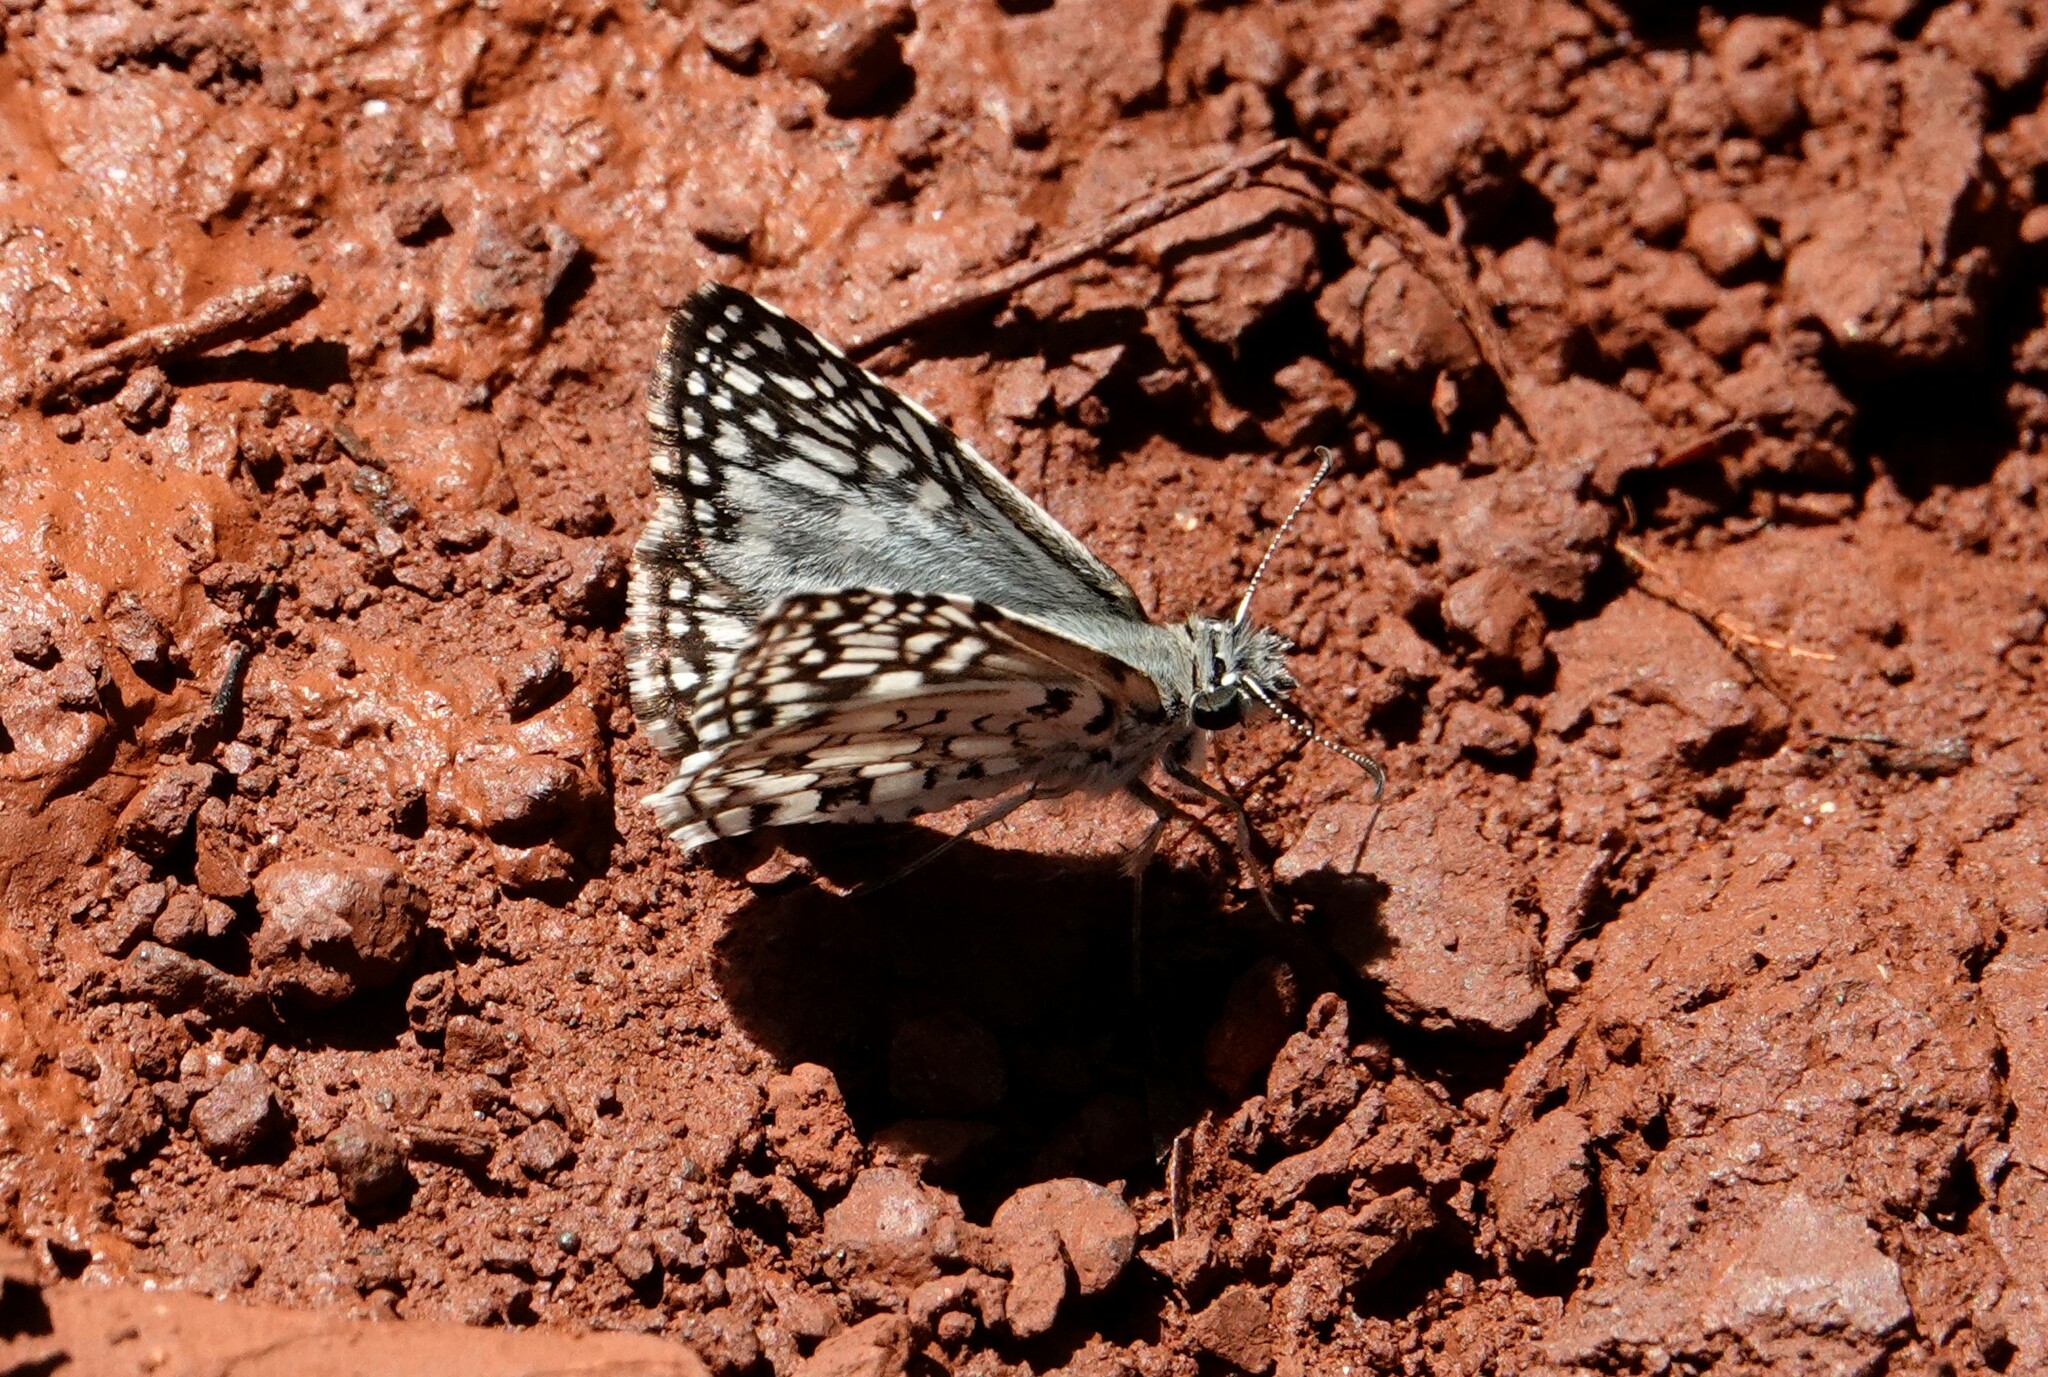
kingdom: Animalia
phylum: Arthropoda
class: Insecta
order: Lepidoptera
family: Hesperiidae
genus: Pyrgus
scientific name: Pyrgus oileus
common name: Tropical checkered-skipper
